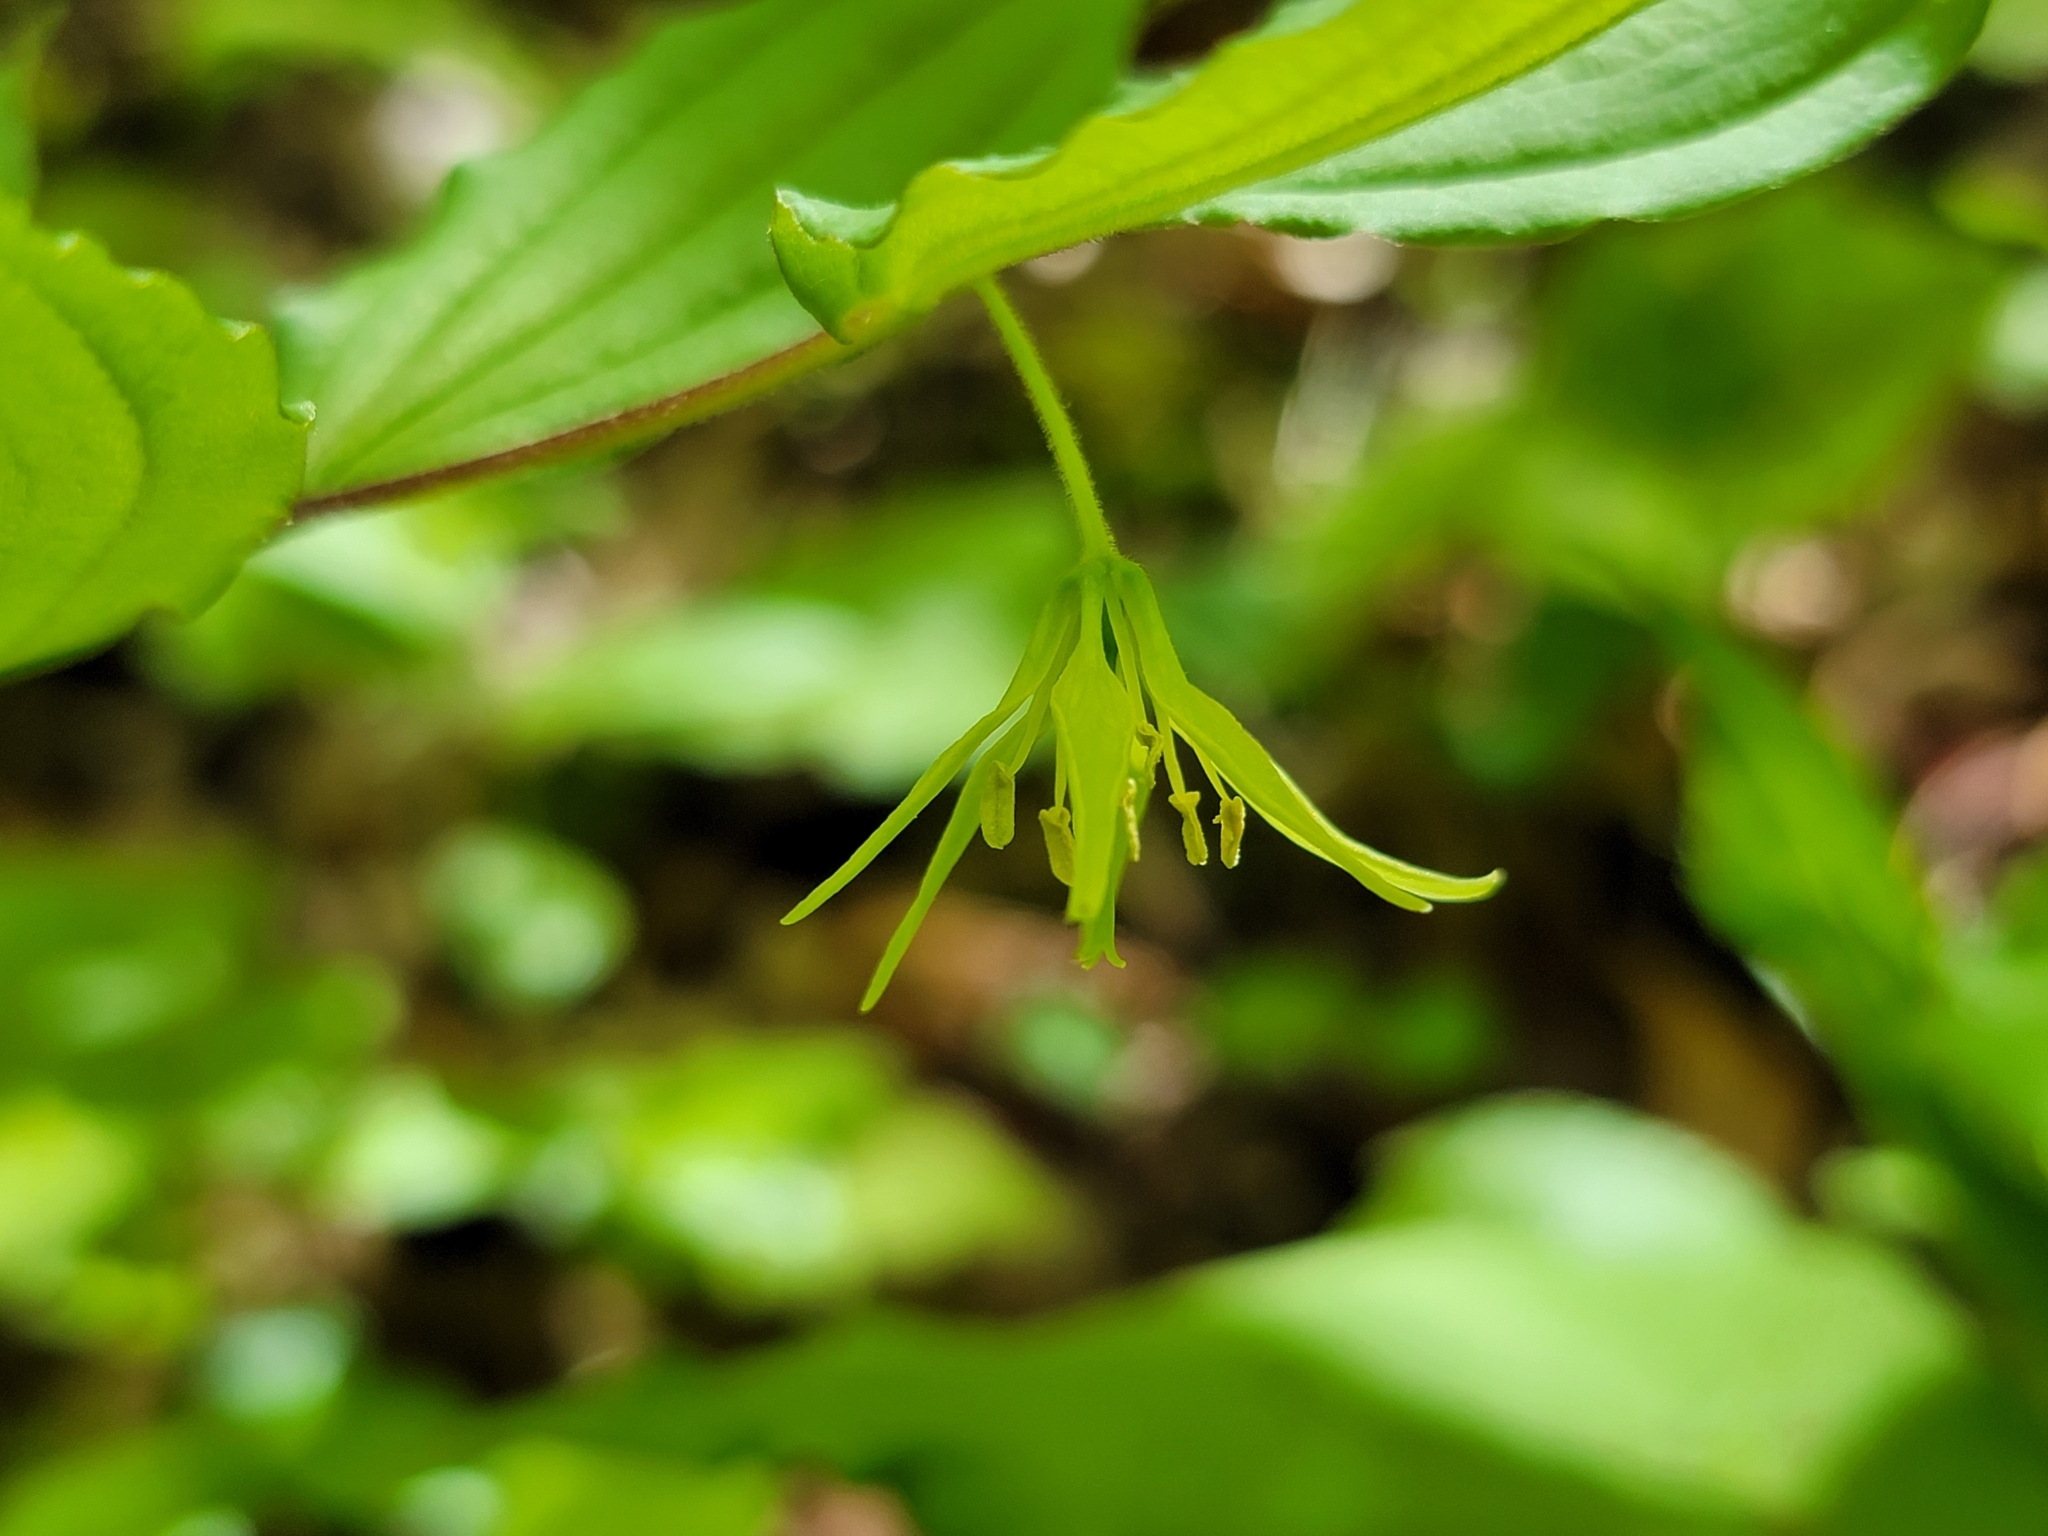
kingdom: Plantae
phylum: Tracheophyta
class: Liliopsida
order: Liliales
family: Liliaceae
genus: Prosartes
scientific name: Prosartes lanuginosa
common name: Hairy mandarin
